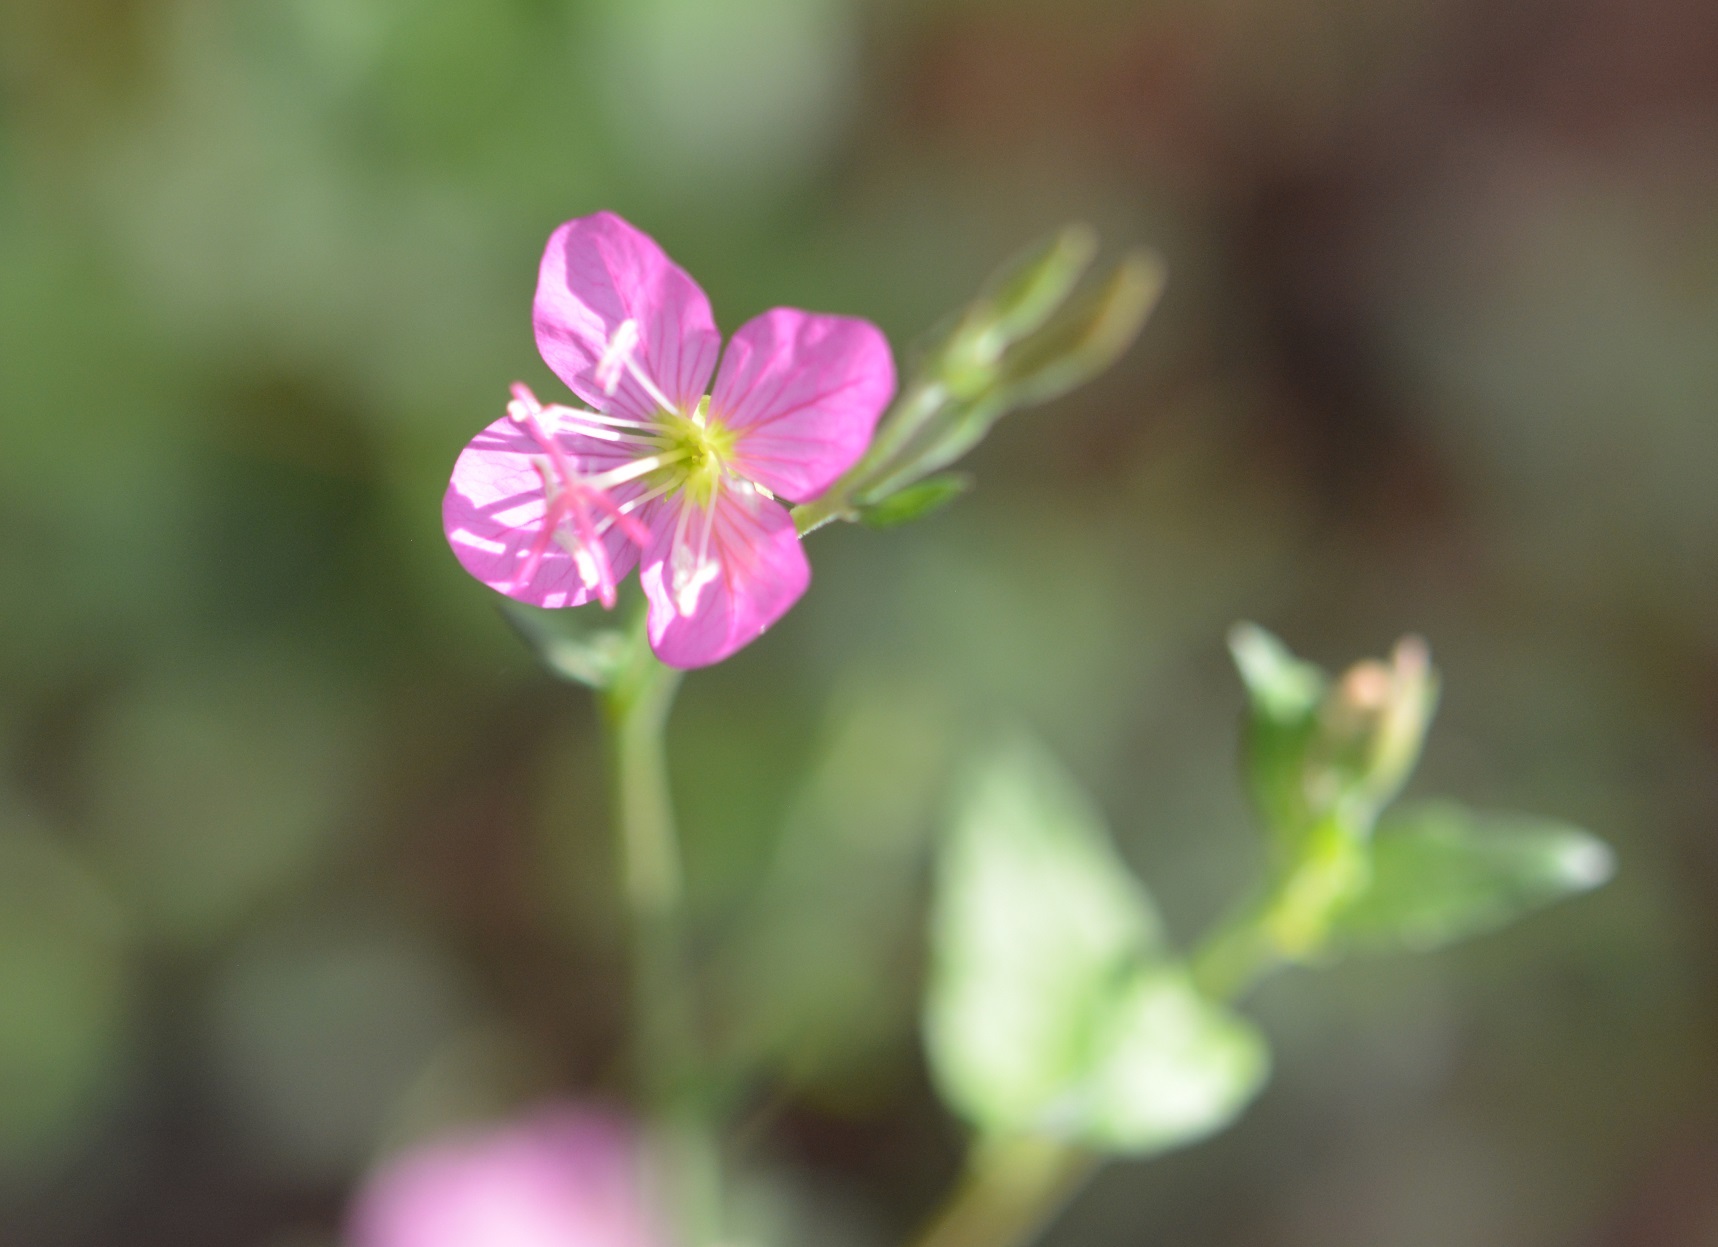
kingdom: Plantae
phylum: Tracheophyta
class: Magnoliopsida
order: Myrtales
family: Onagraceae
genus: Oenothera
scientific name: Oenothera rosea
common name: Rosy evening-primrose
